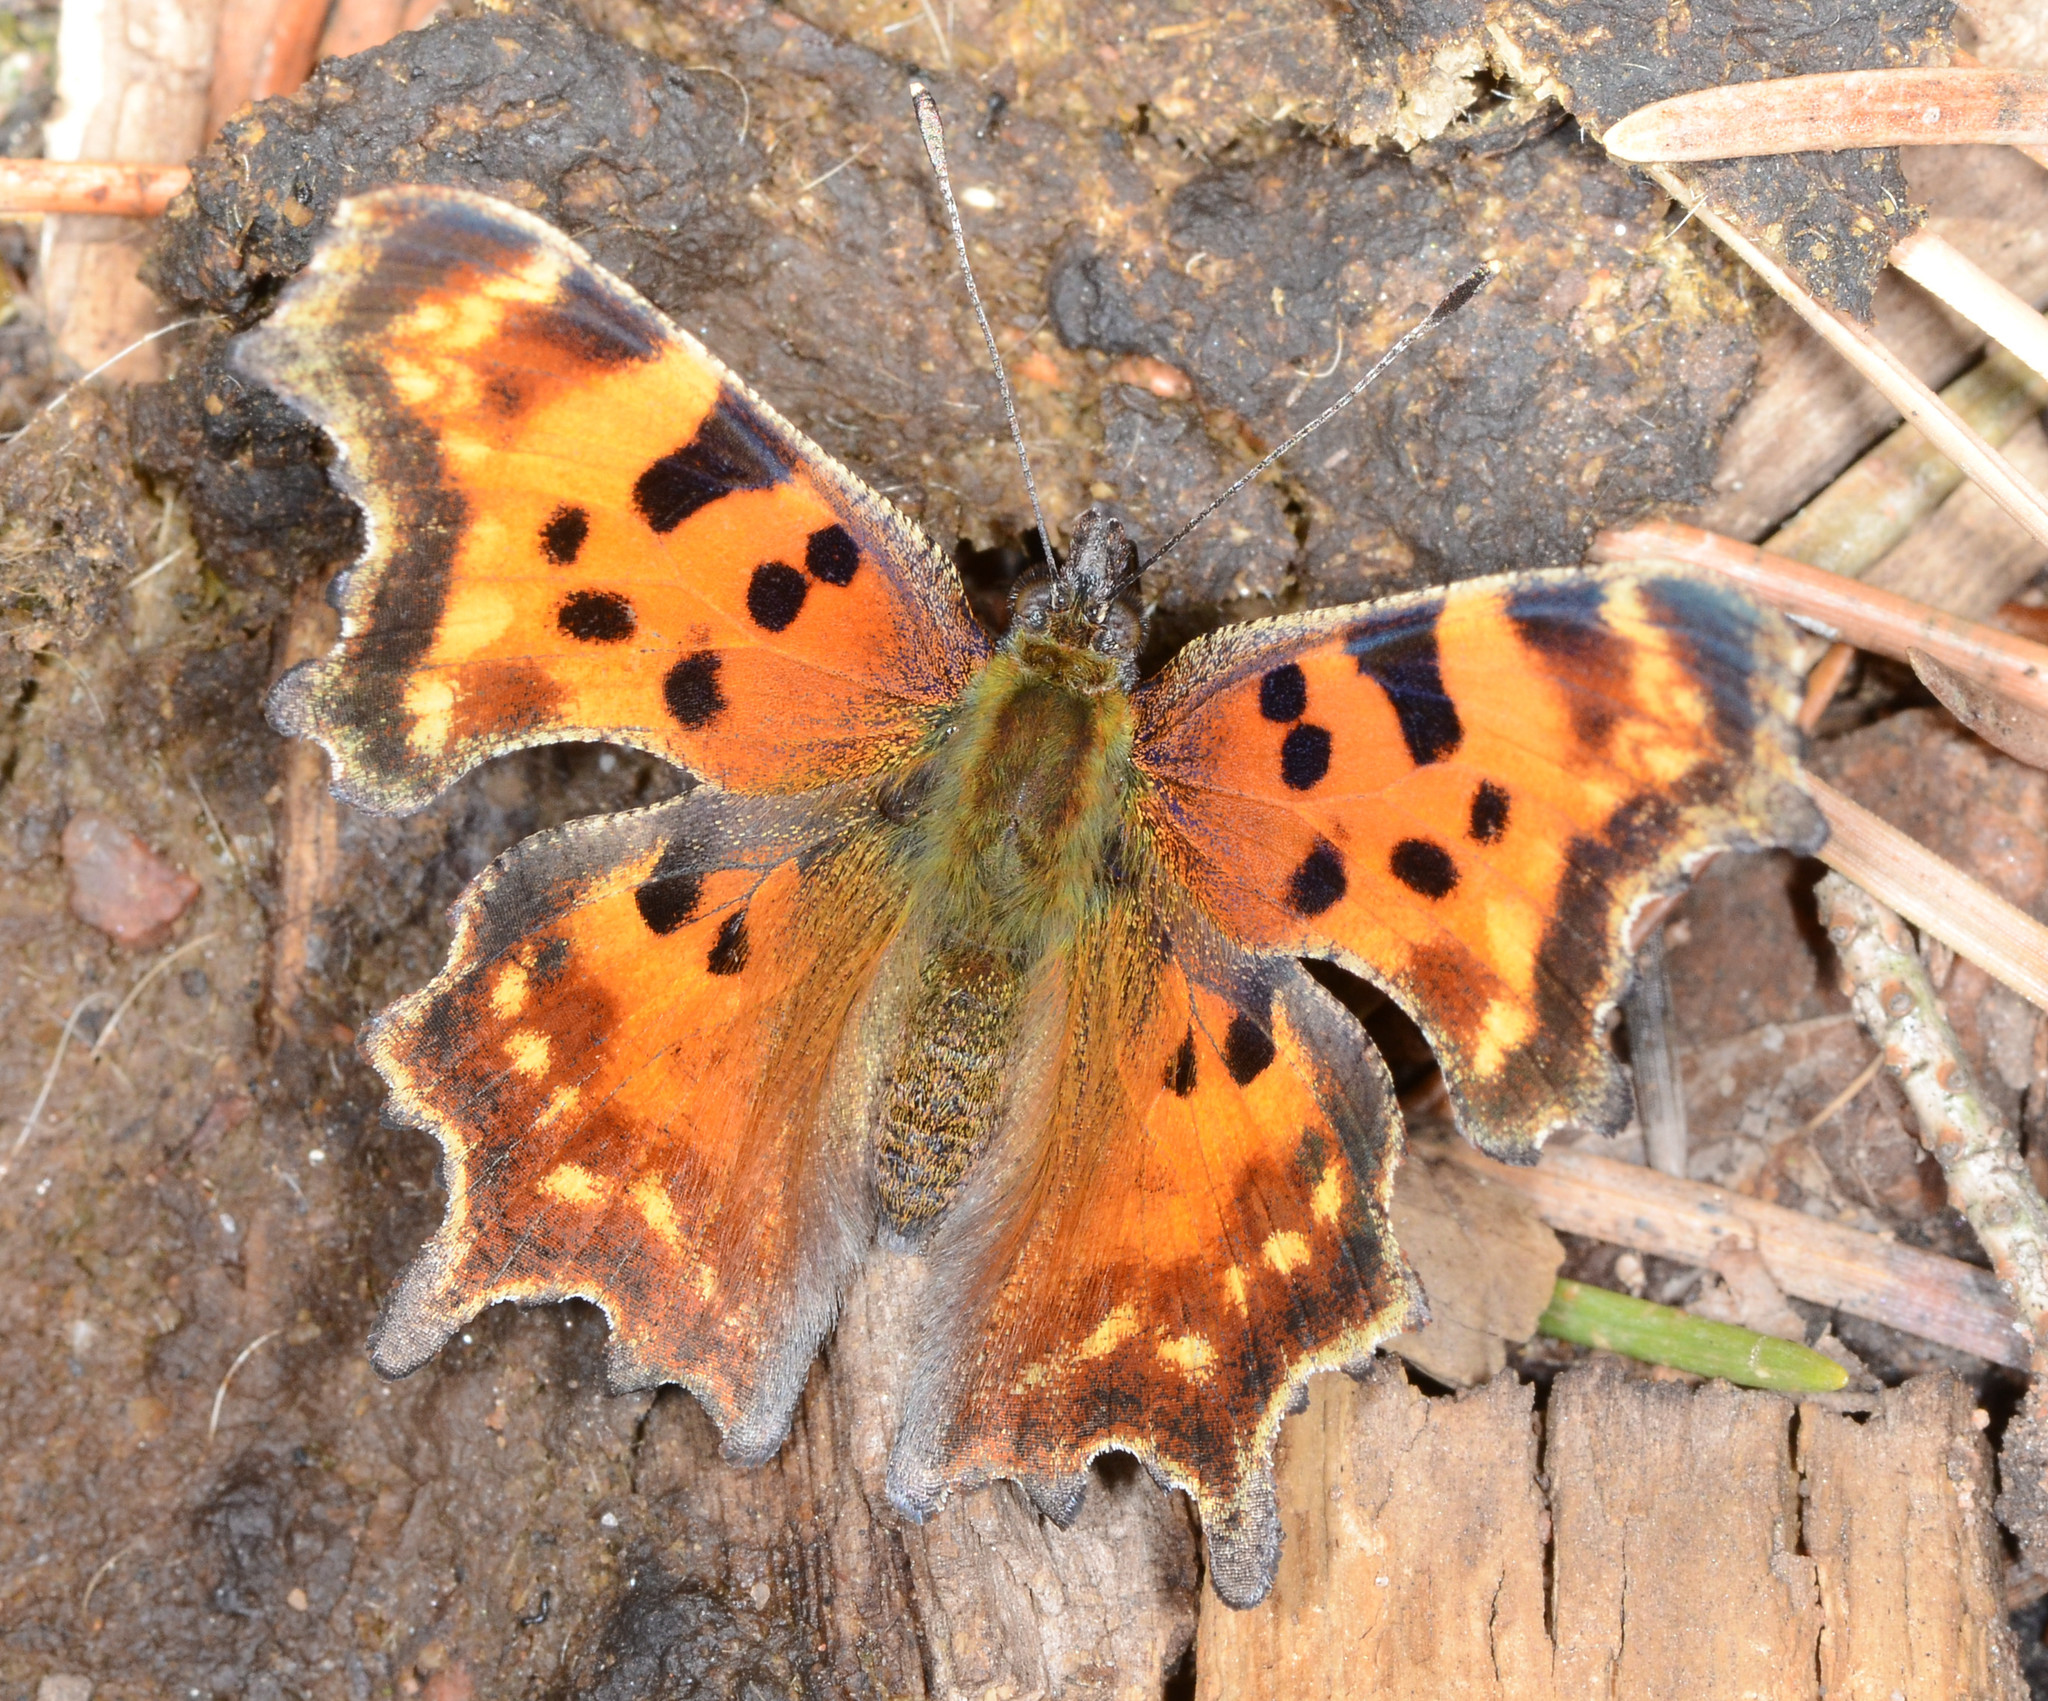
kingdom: Animalia
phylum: Arthropoda
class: Insecta
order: Lepidoptera
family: Nymphalidae
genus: Polygonia
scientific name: Polygonia gracilis
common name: Hoary comma
